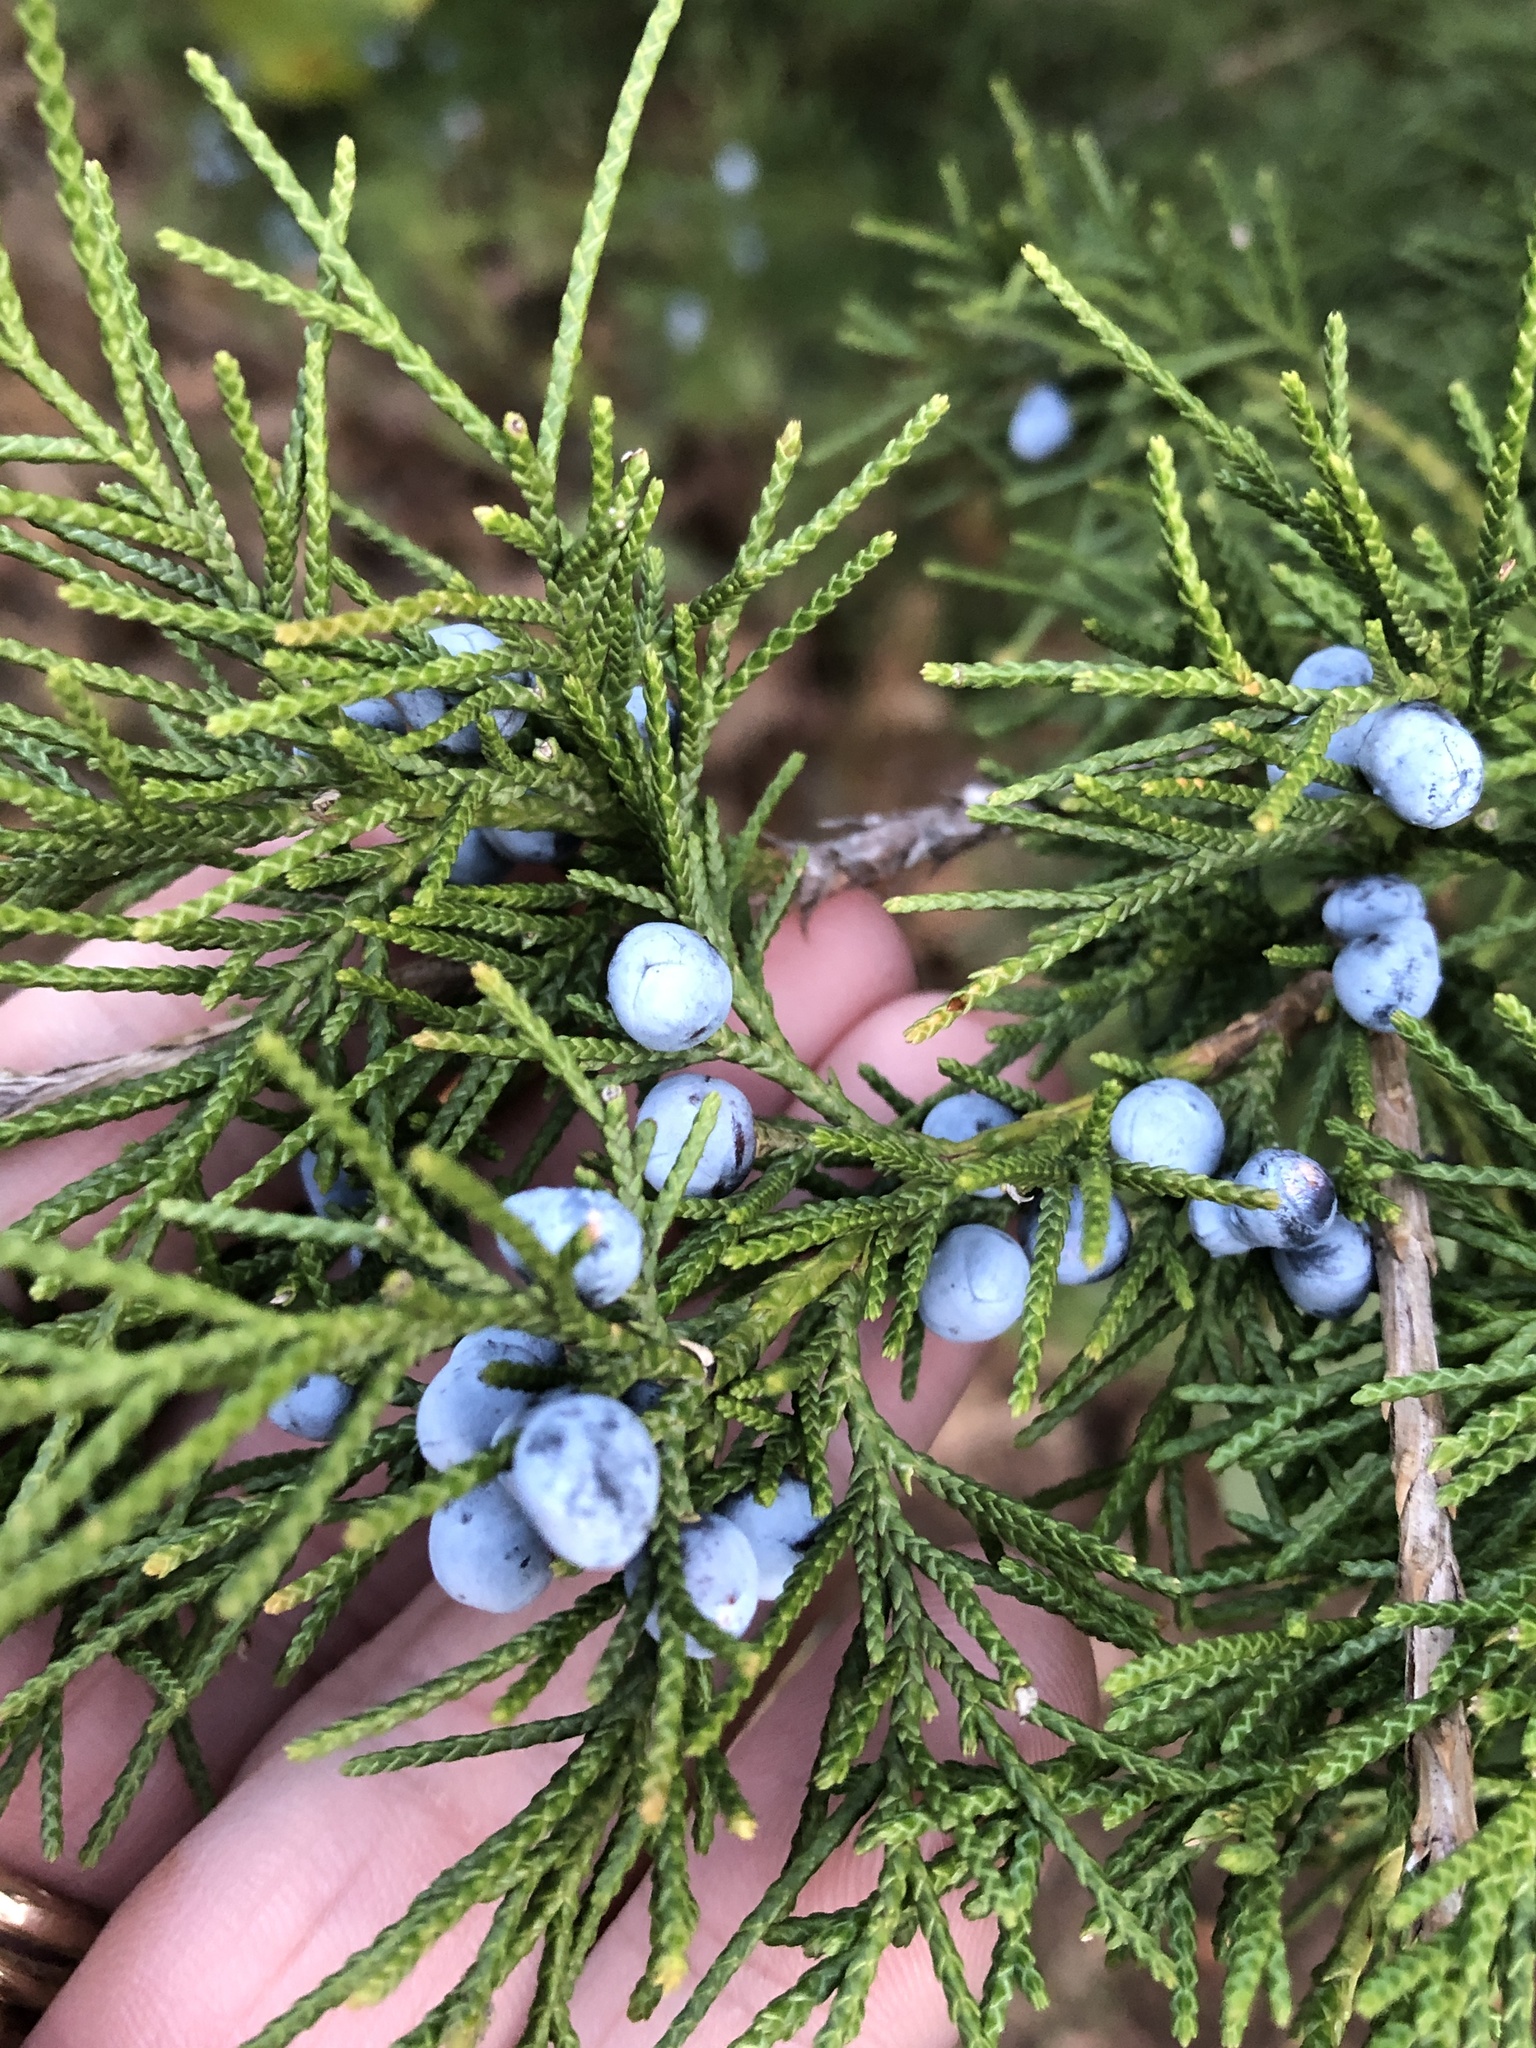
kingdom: Plantae
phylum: Tracheophyta
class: Pinopsida
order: Pinales
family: Cupressaceae
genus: Juniperus
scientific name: Juniperus virginiana
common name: Red juniper
